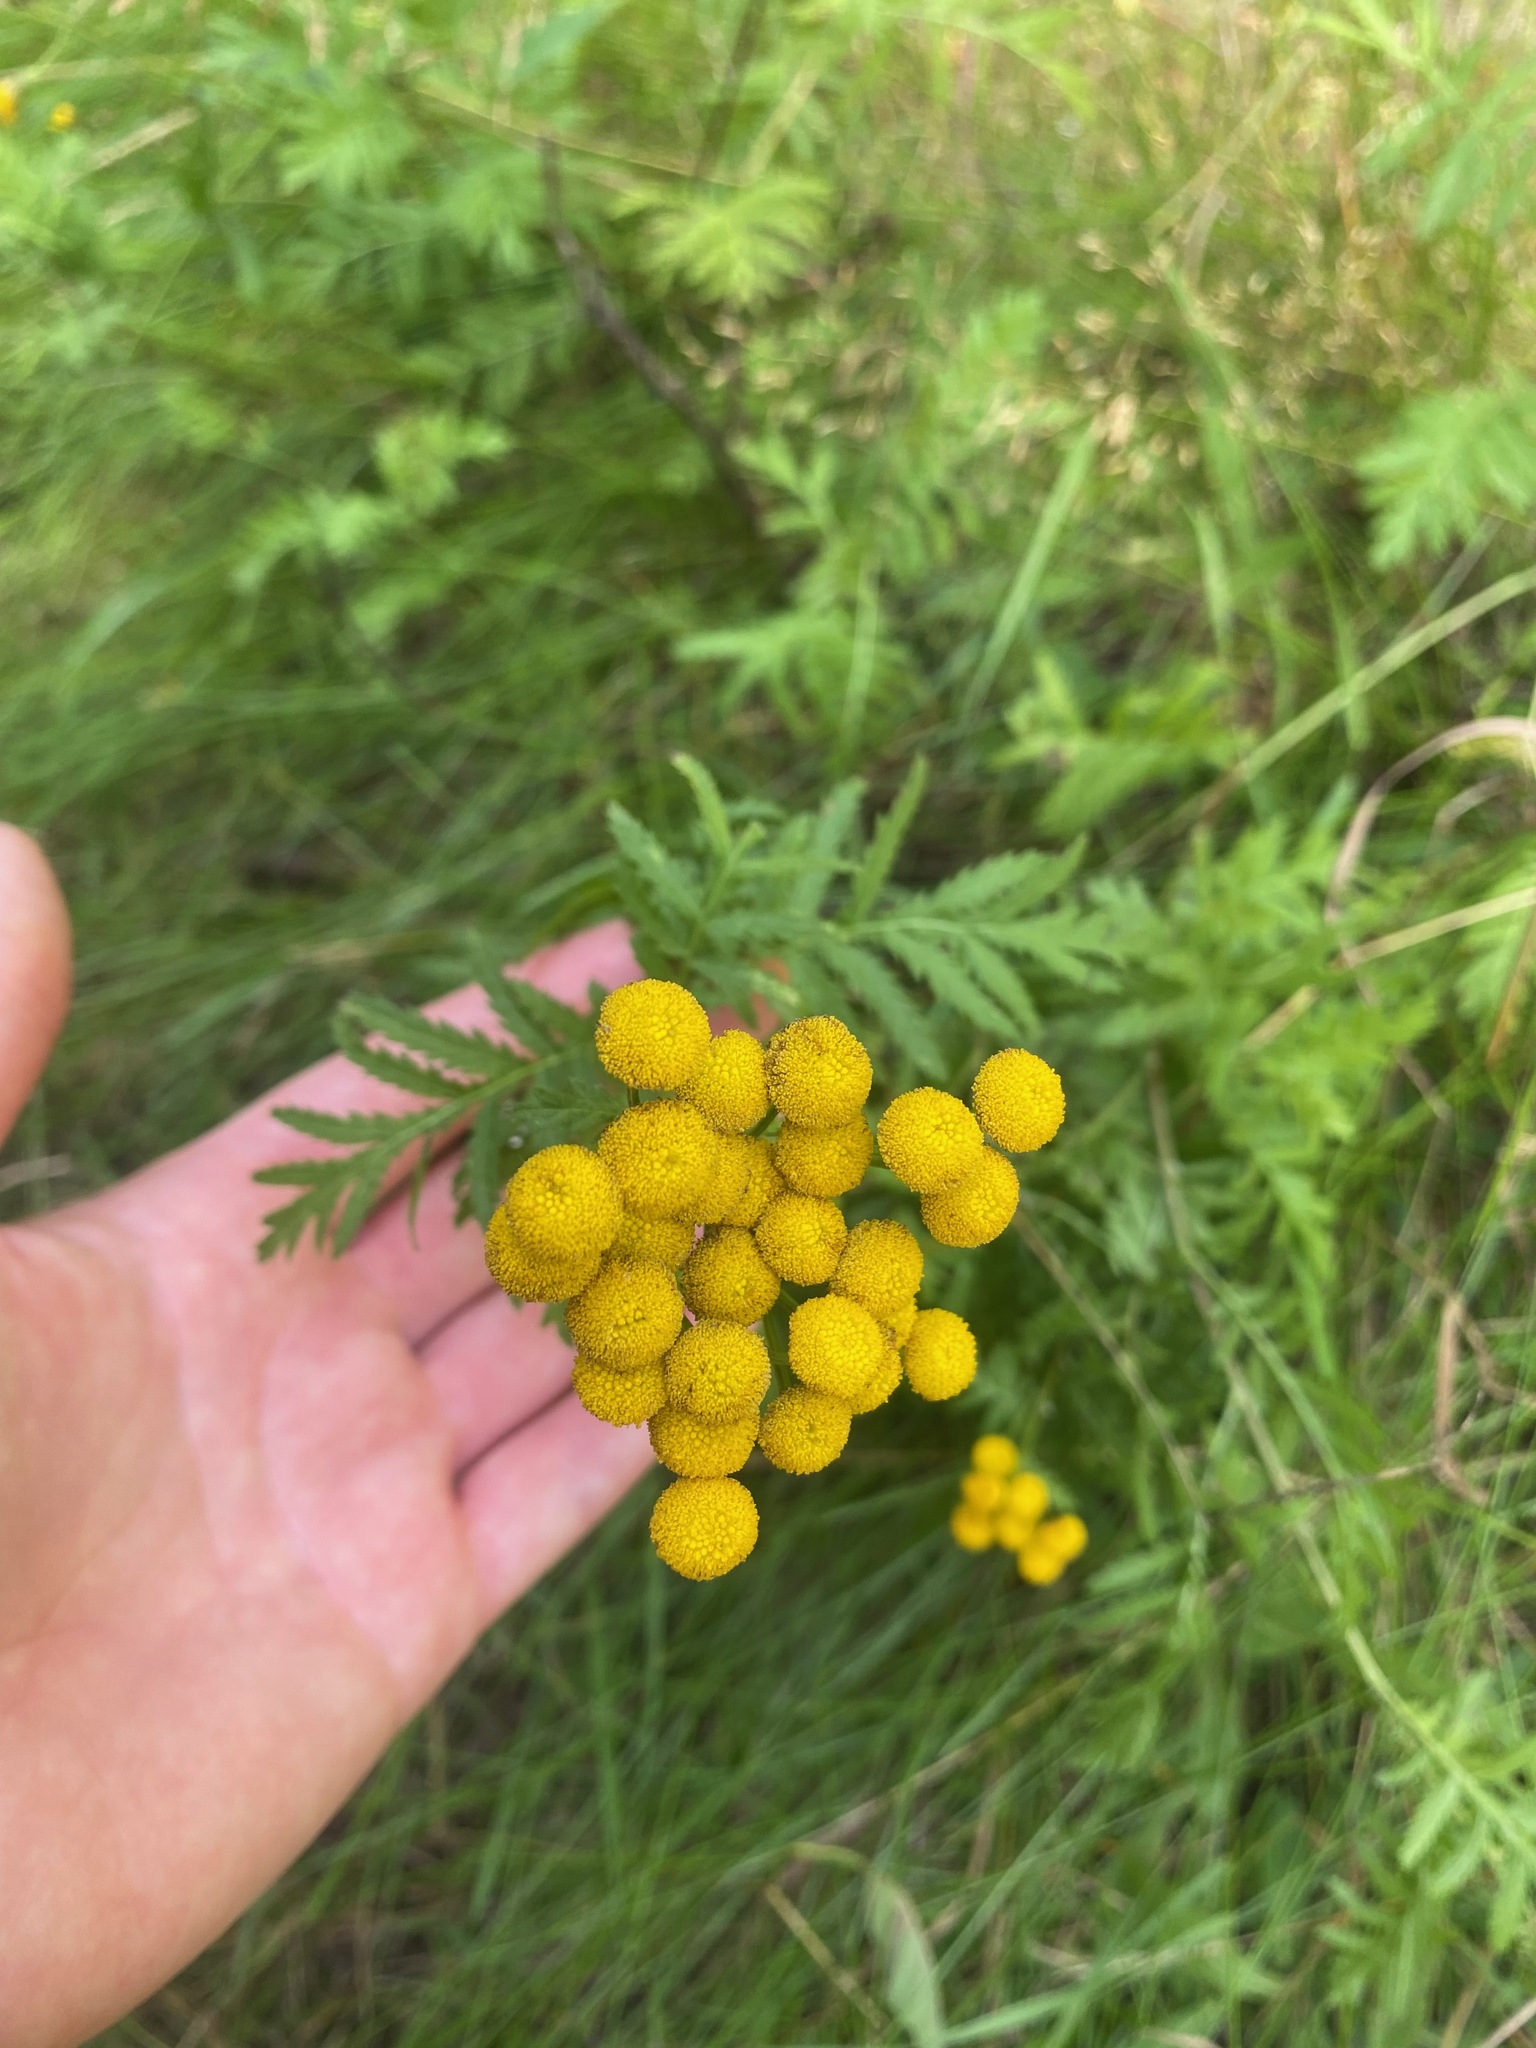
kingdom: Plantae
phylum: Tracheophyta
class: Magnoliopsida
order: Asterales
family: Asteraceae
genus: Tanacetum
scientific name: Tanacetum vulgare
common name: Common tansy
